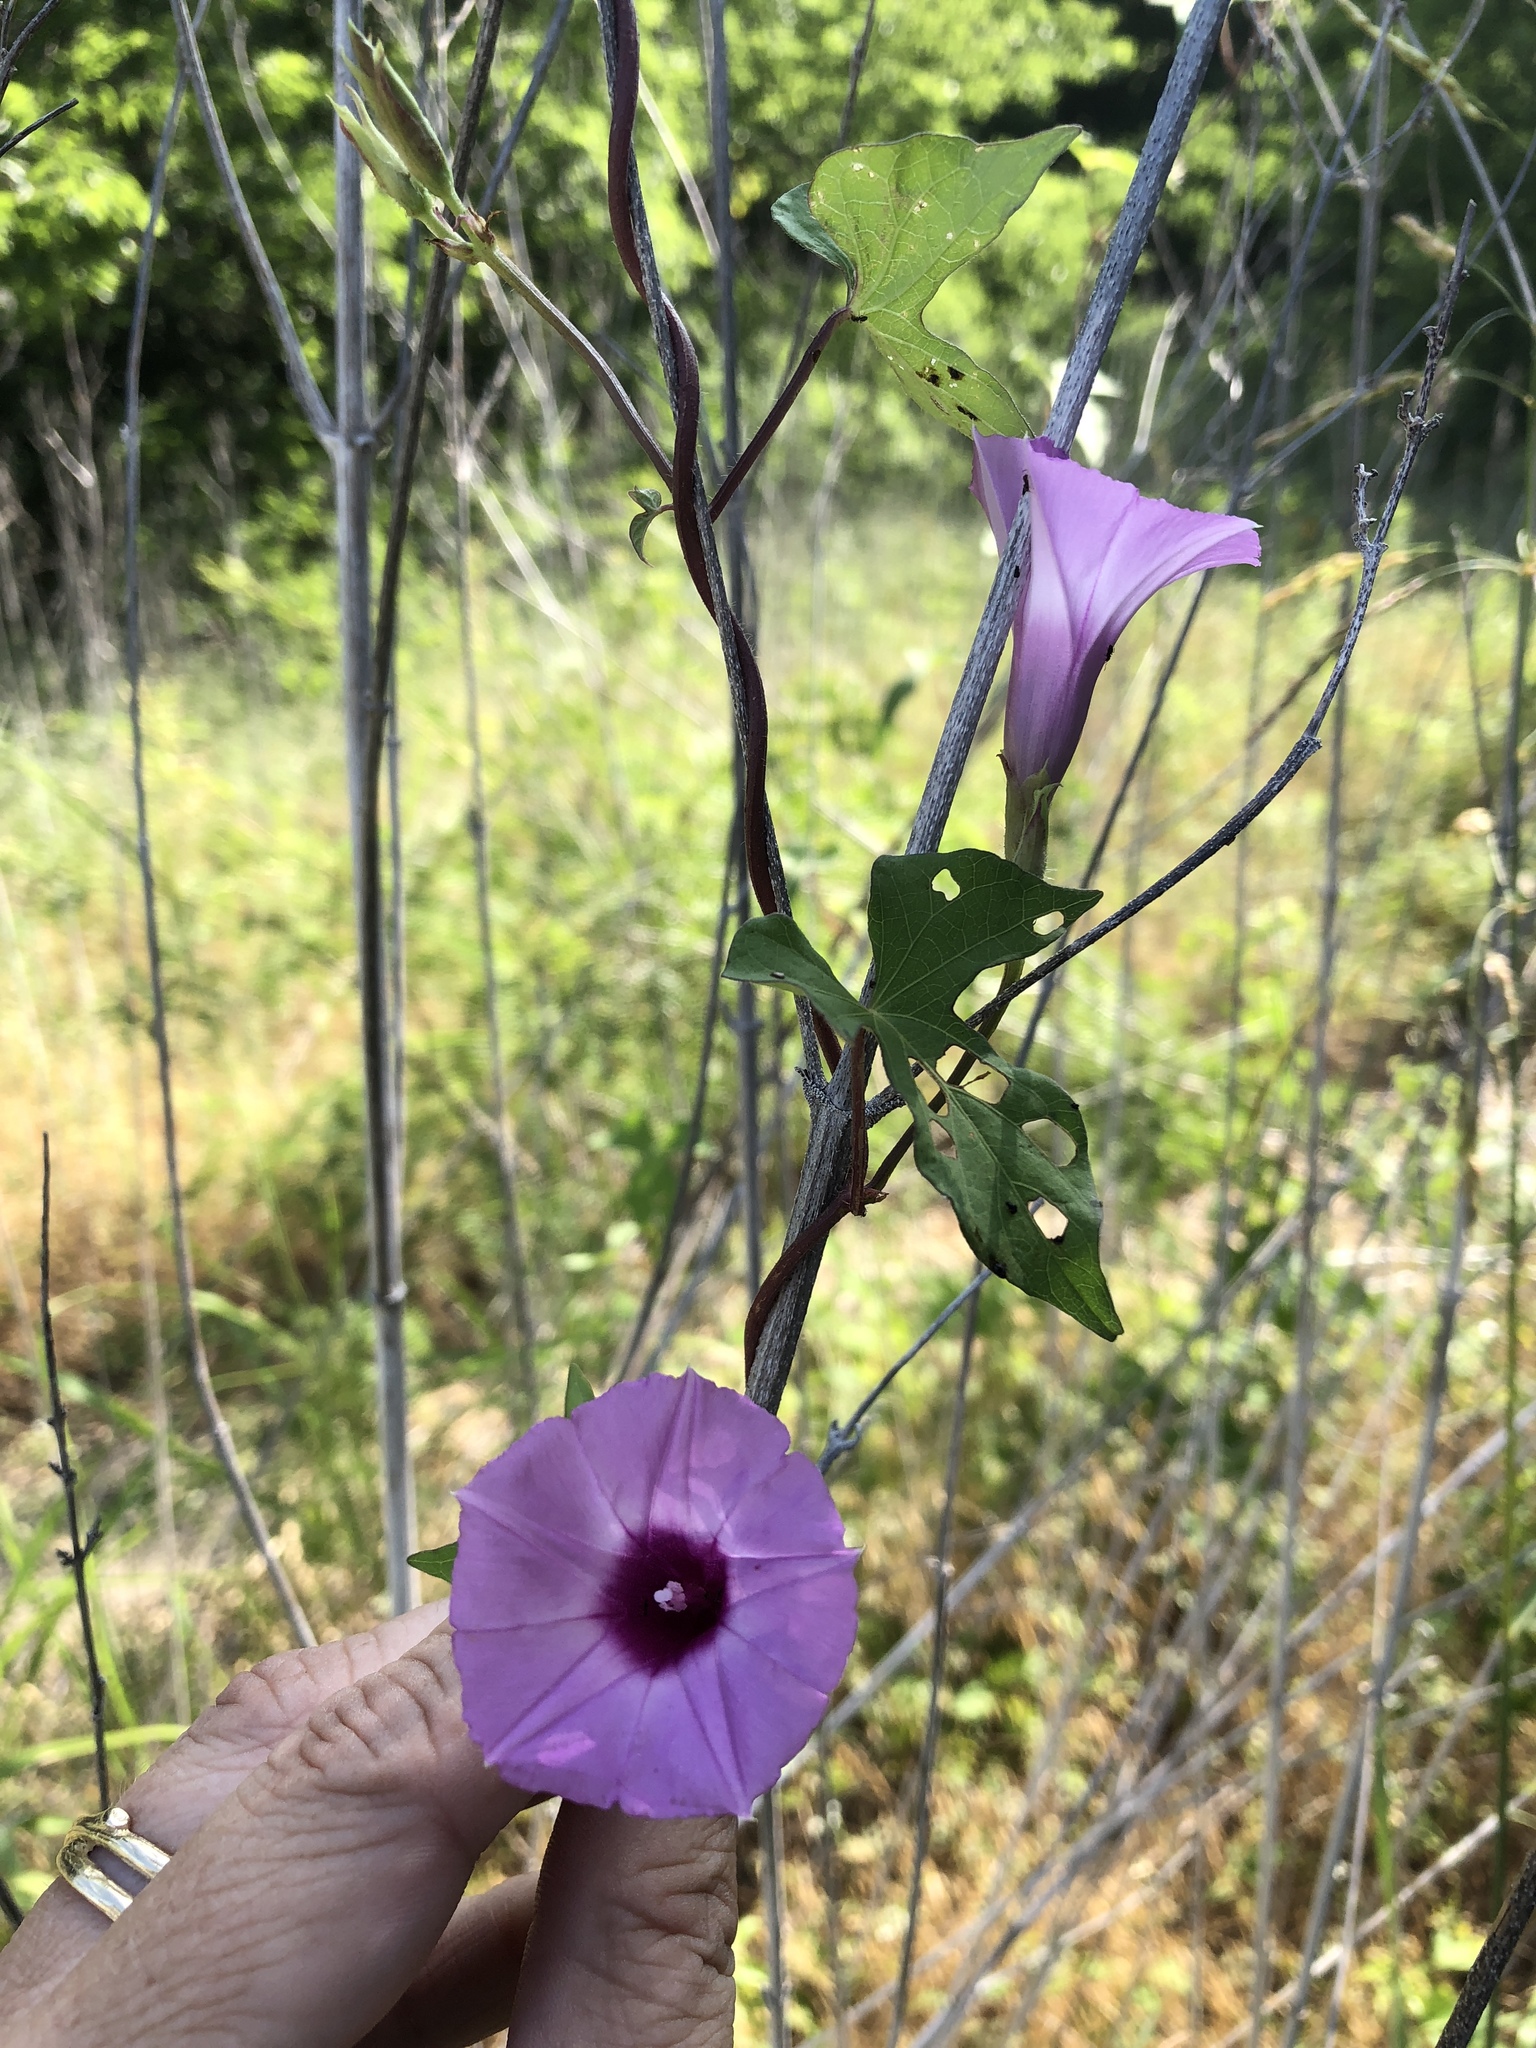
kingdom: Plantae
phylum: Tracheophyta
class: Magnoliopsida
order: Solanales
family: Convolvulaceae
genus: Ipomoea
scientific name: Ipomoea cordatotriloba
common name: Cotton morning glory
